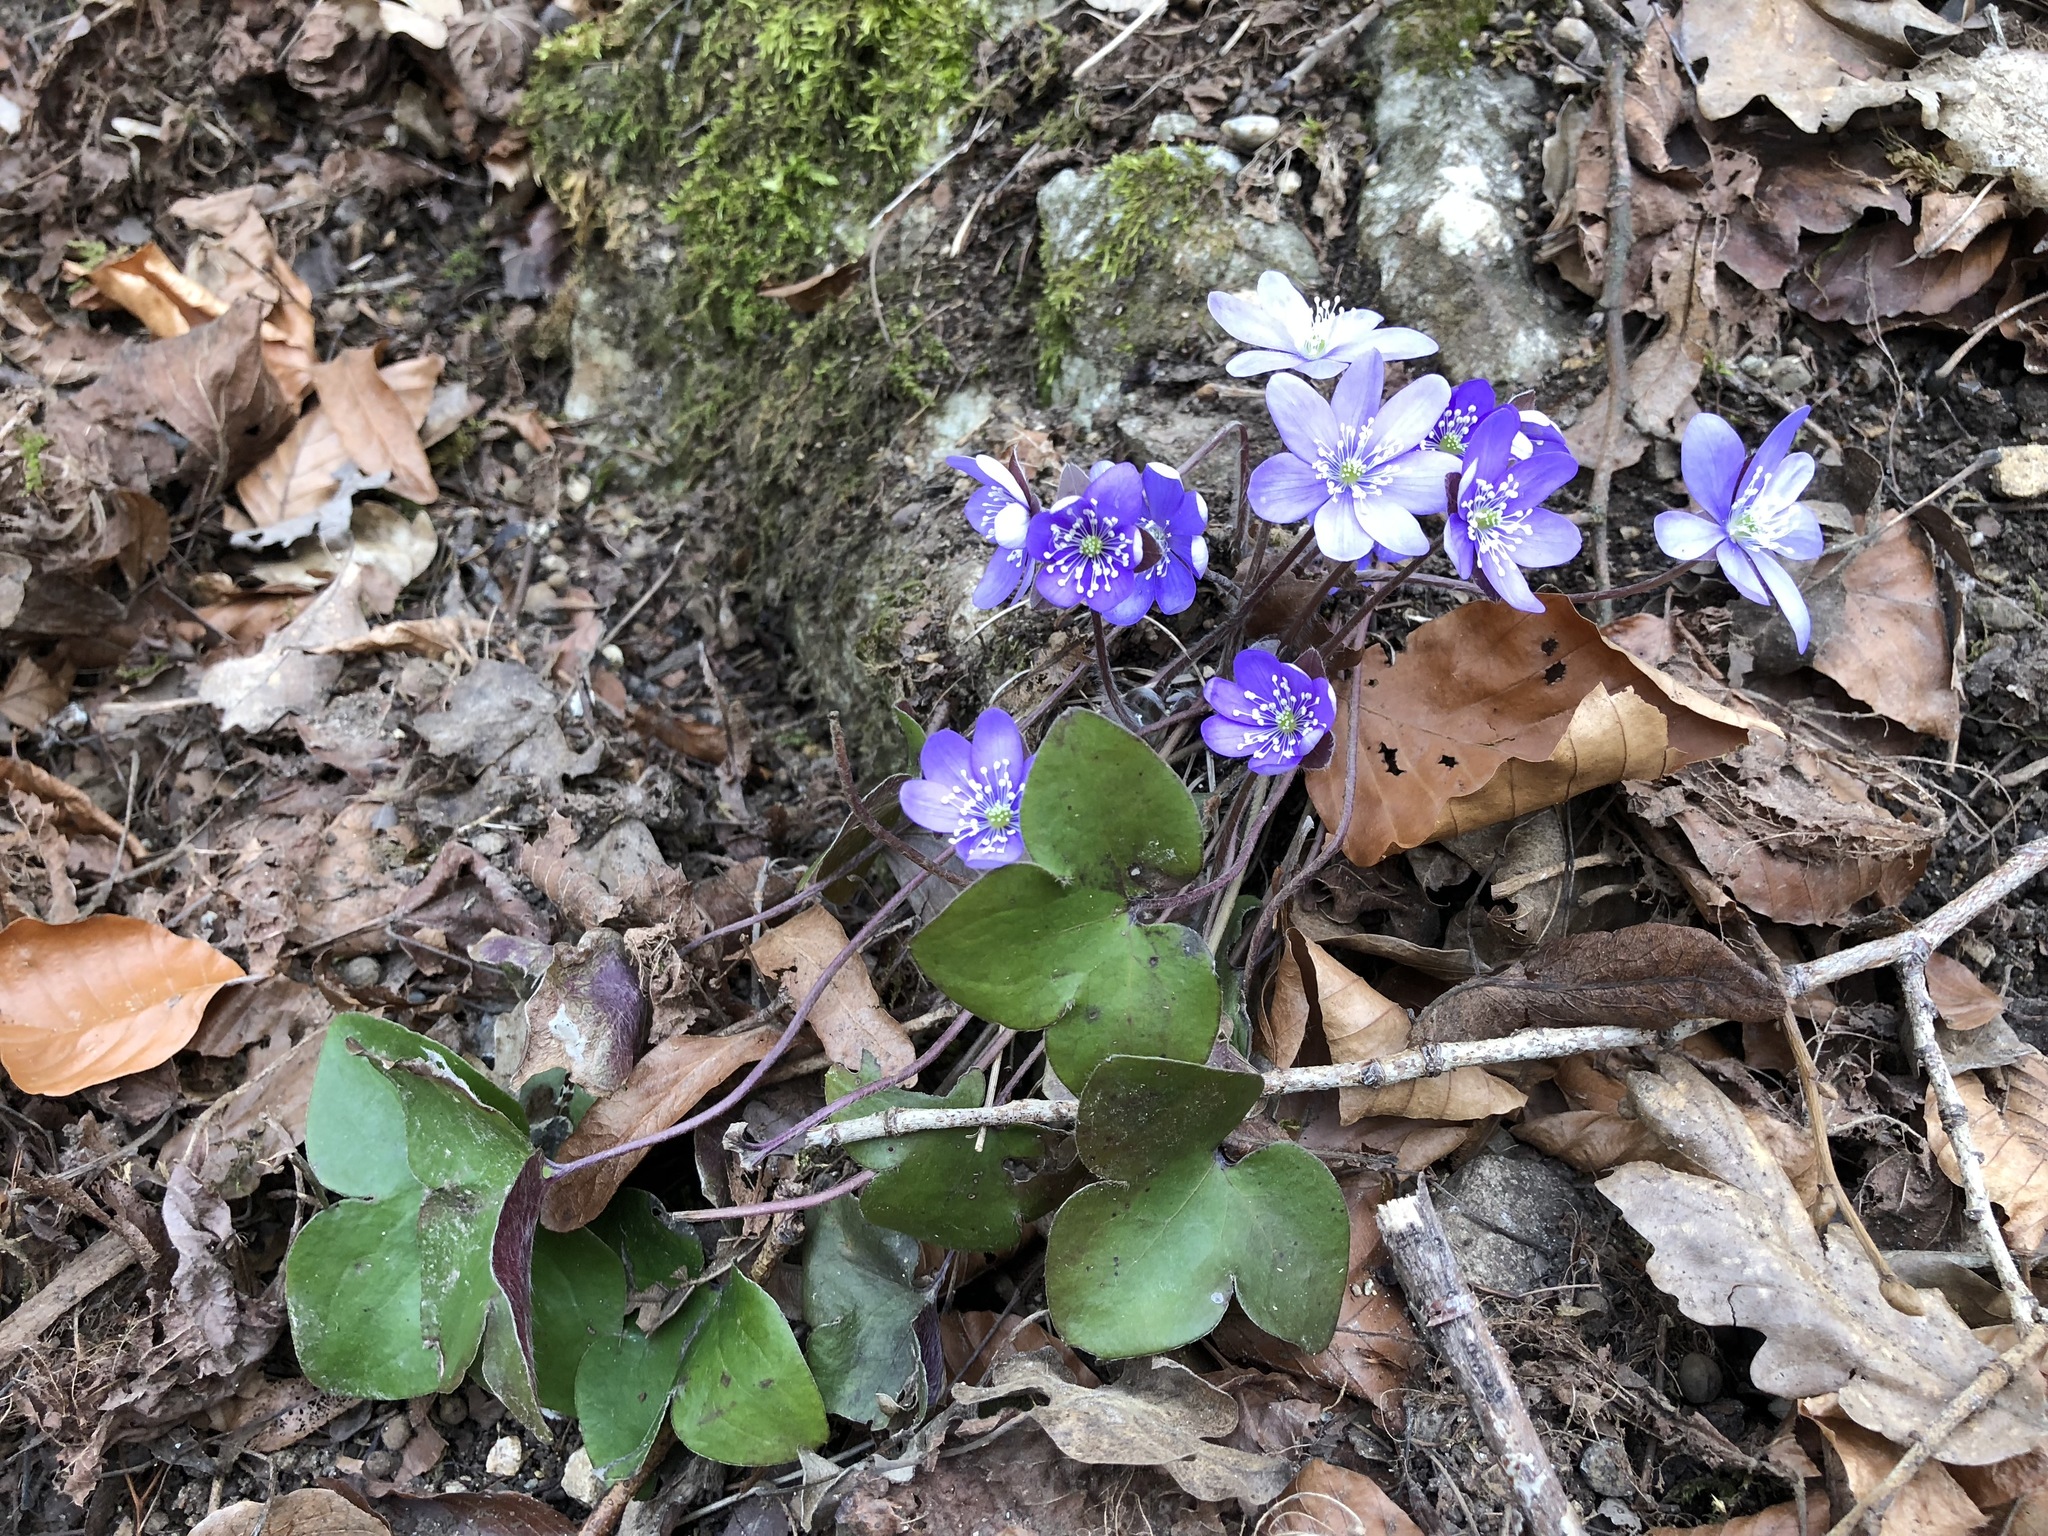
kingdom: Plantae
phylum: Tracheophyta
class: Magnoliopsida
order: Ranunculales
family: Ranunculaceae
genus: Hepatica
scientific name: Hepatica nobilis
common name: Liverleaf
